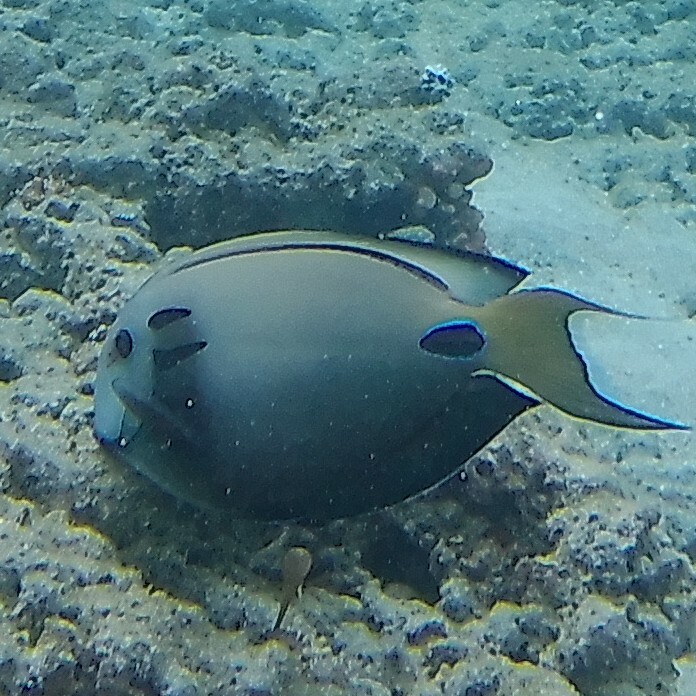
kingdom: Animalia
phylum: Chordata
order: Perciformes
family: Acanthuridae
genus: Acanthurus
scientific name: Acanthurus tennentii
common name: Doubleband surgeonfish
